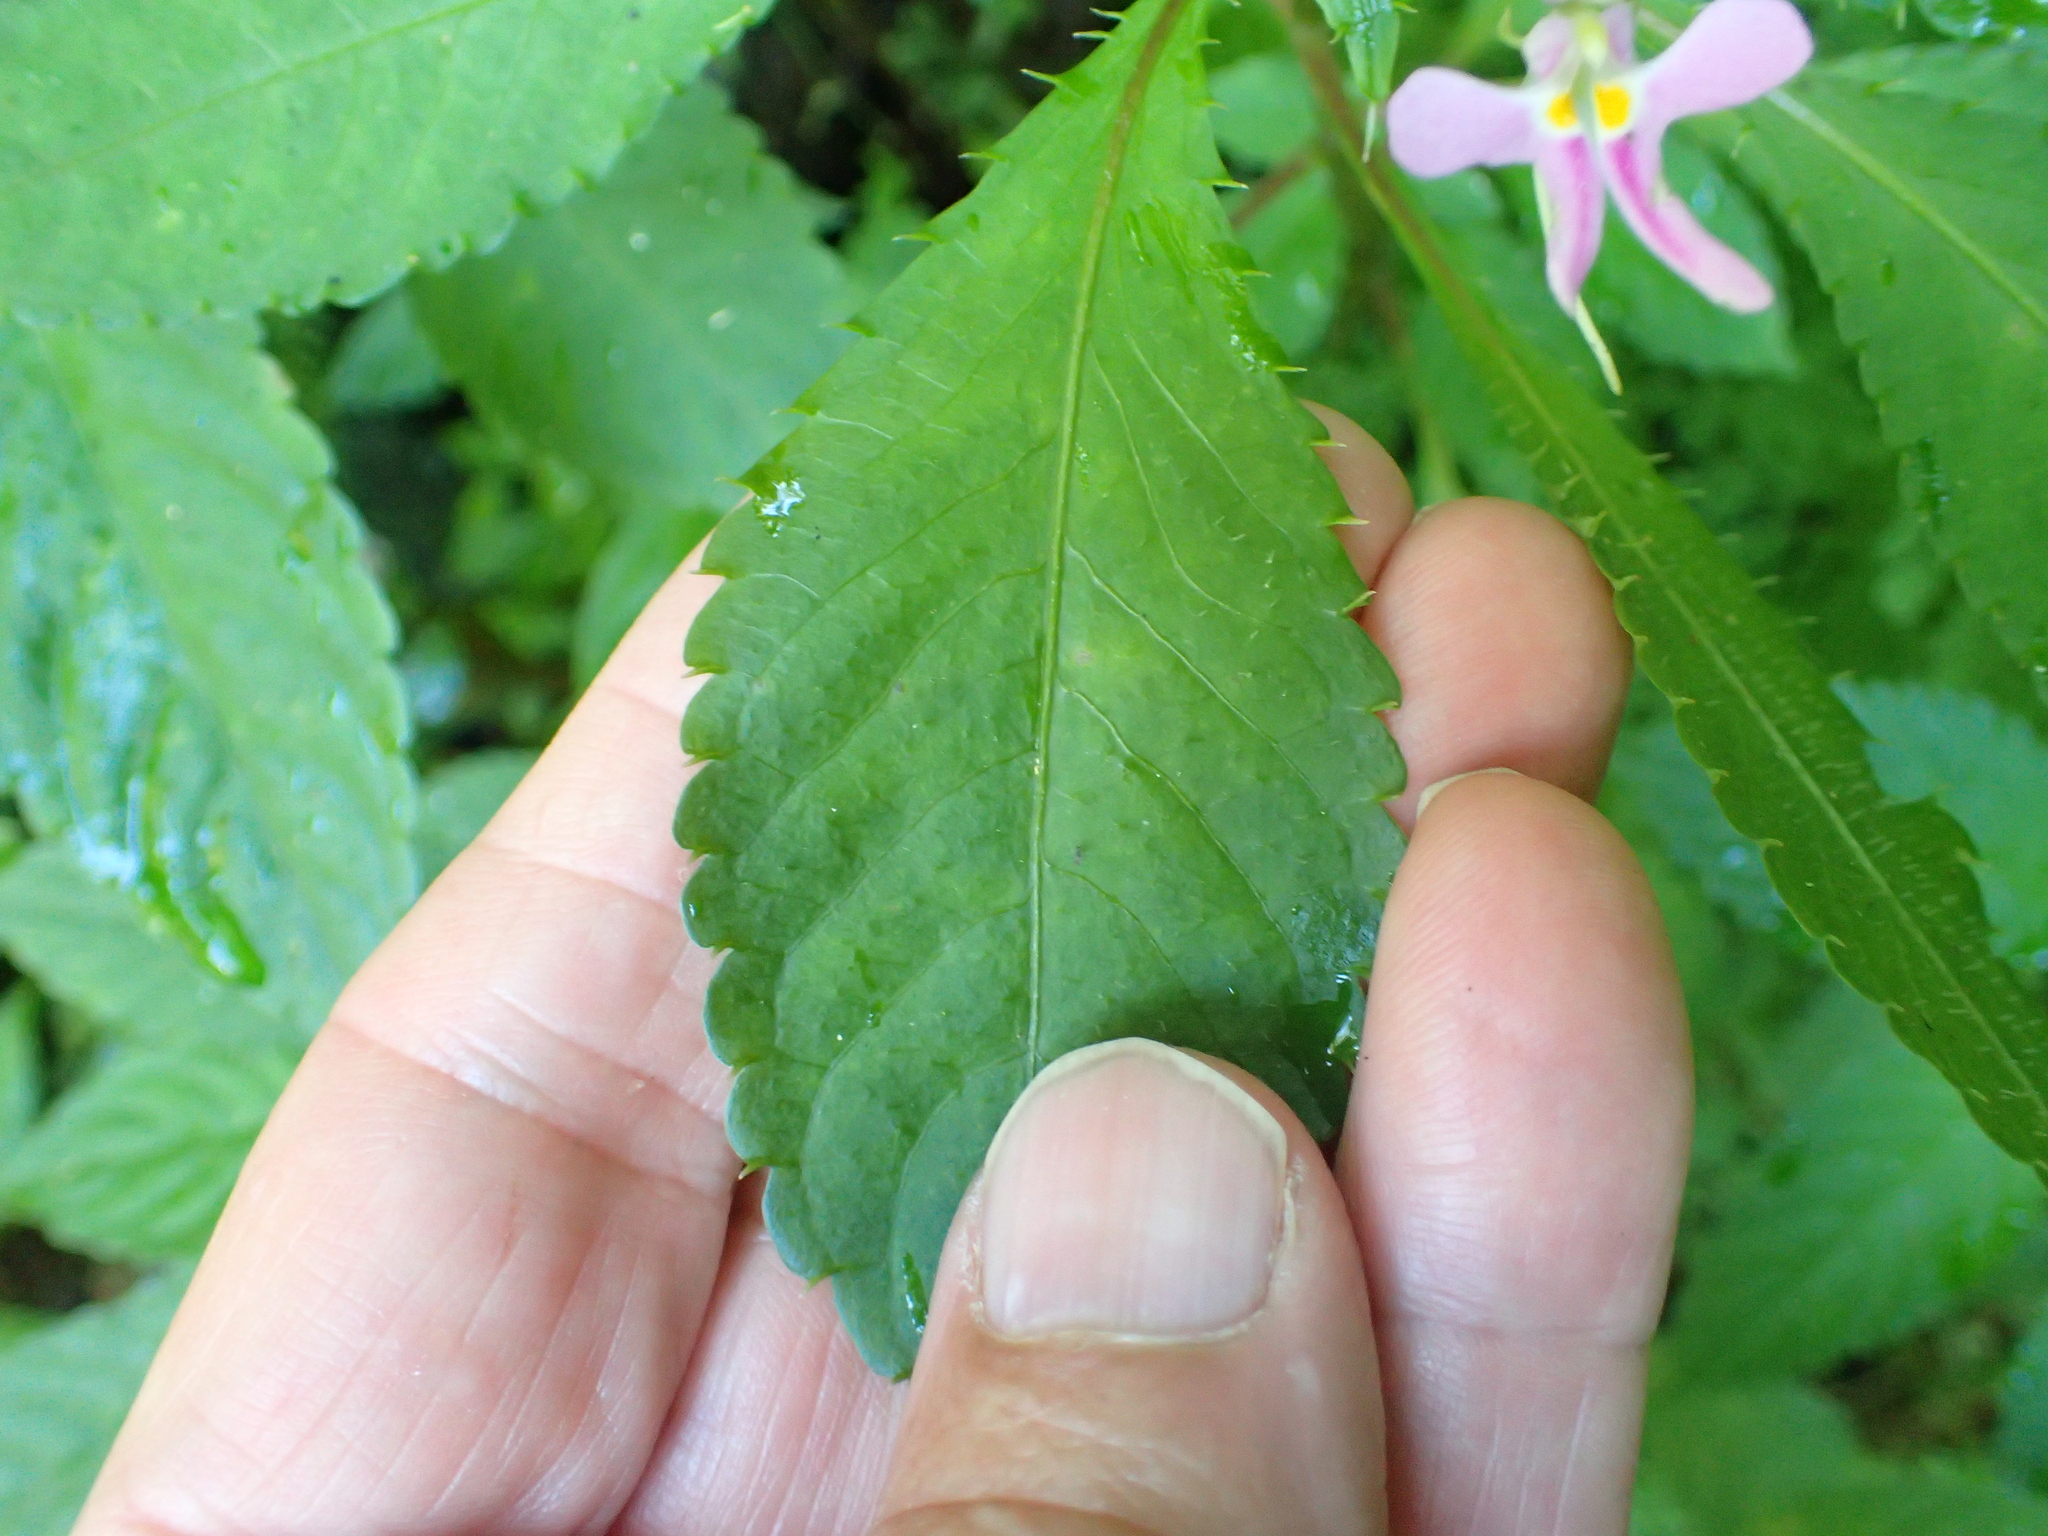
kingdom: Plantae
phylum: Tracheophyta
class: Magnoliopsida
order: Ericales
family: Balsaminaceae
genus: Impatiens
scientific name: Impatiens hochstetteri
